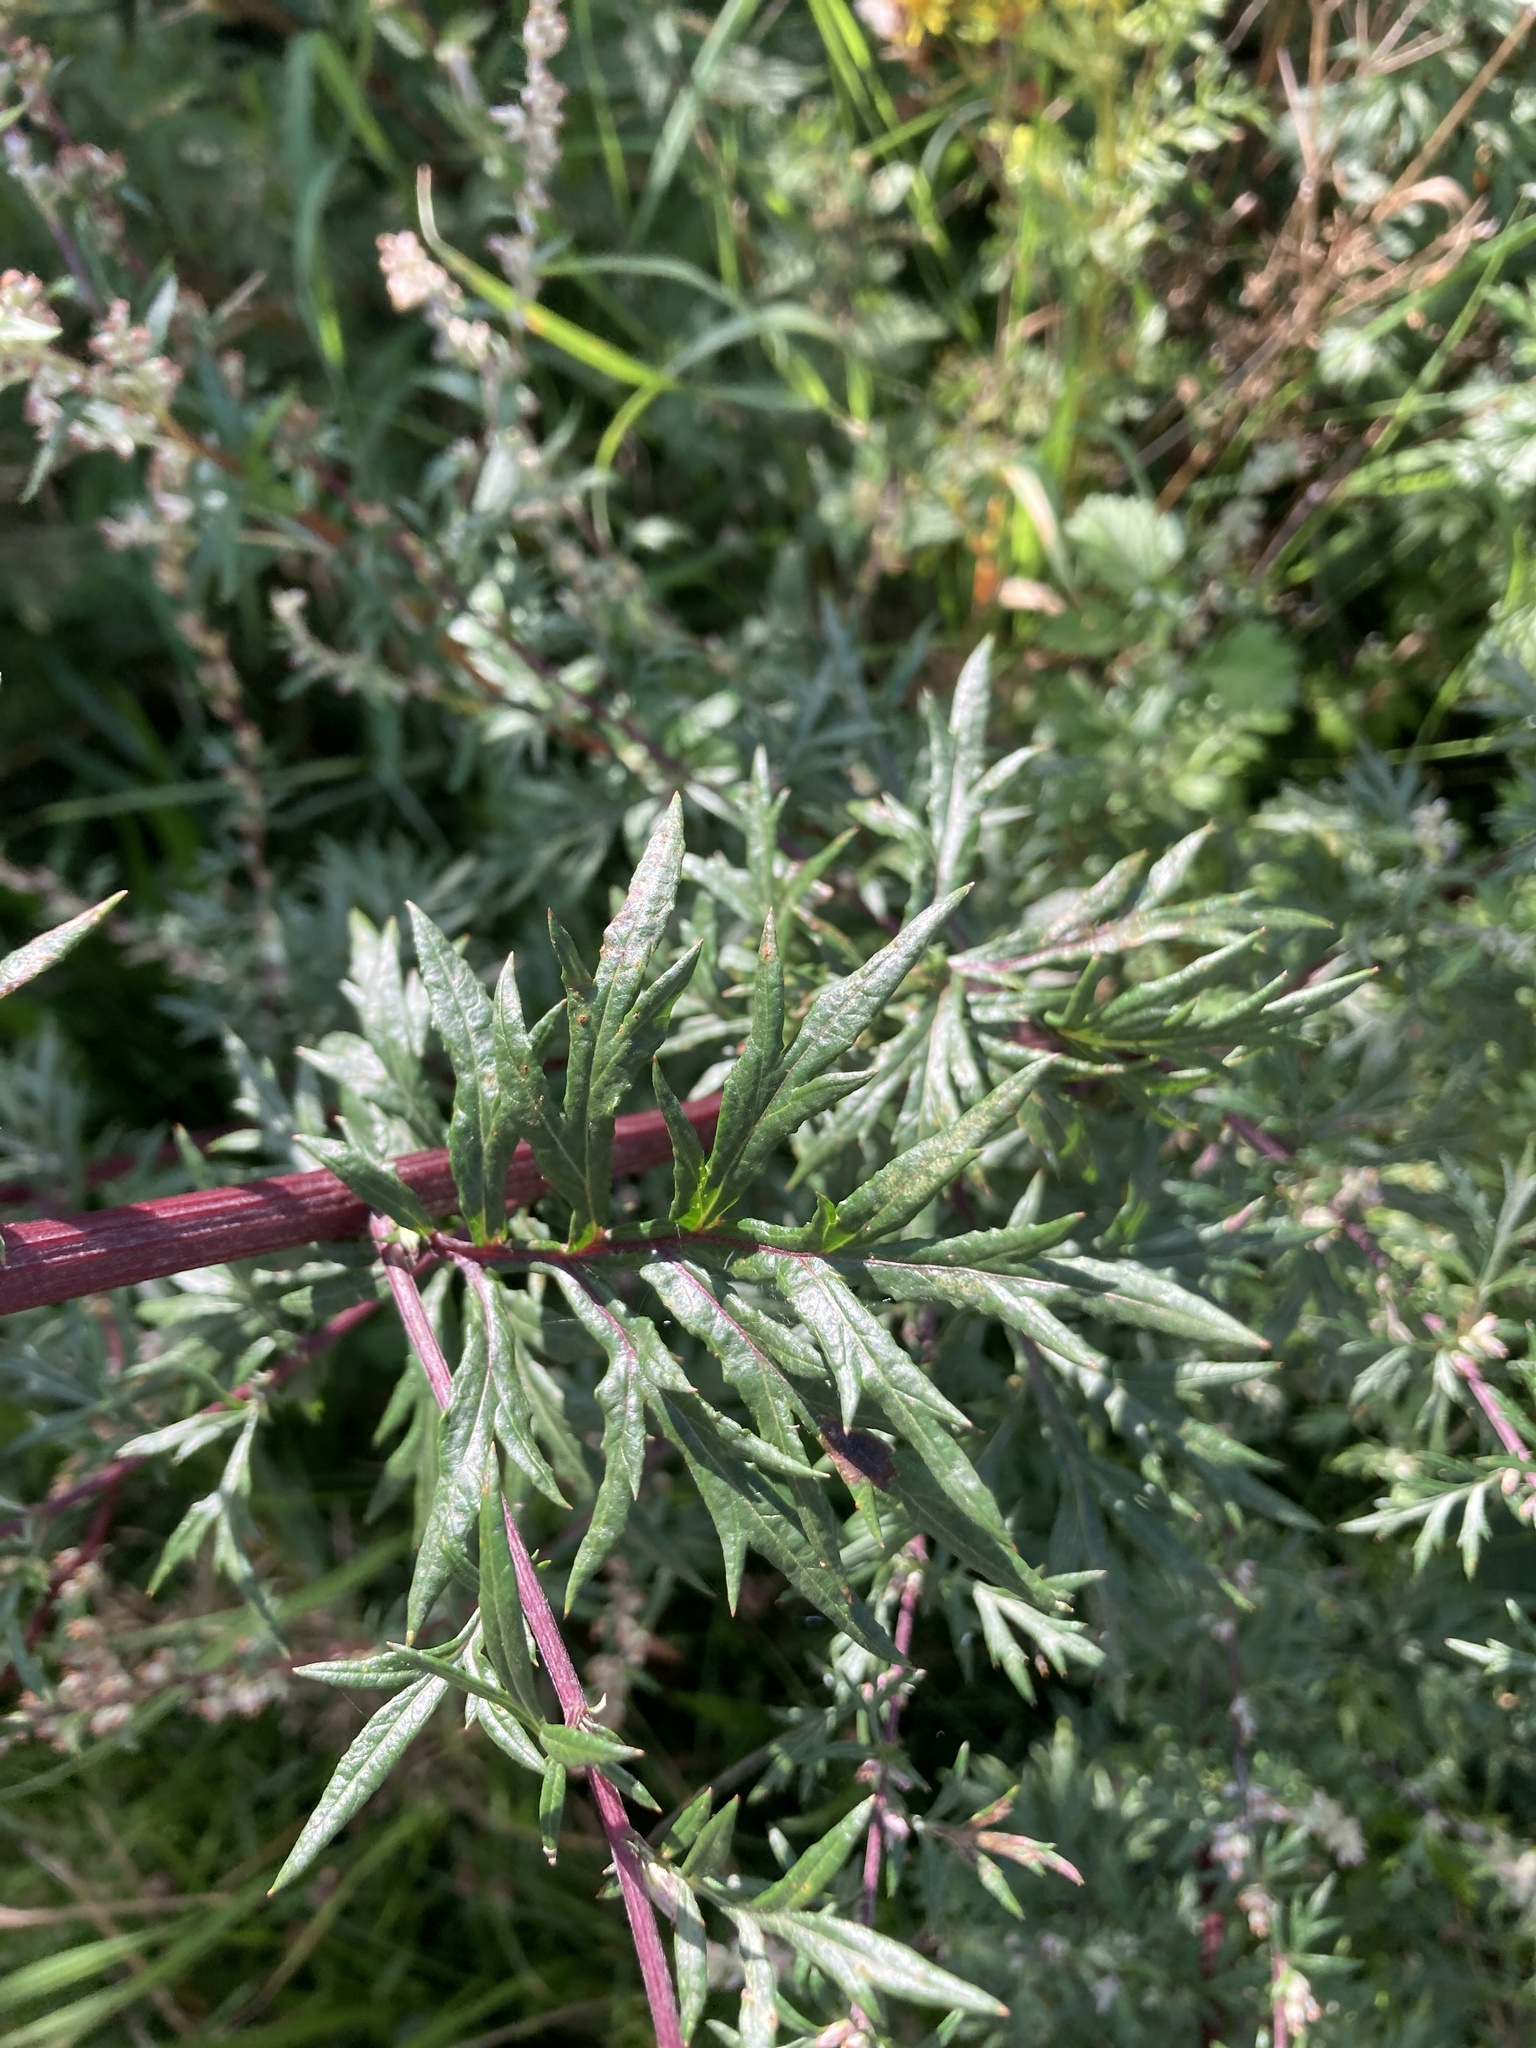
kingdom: Plantae
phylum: Tracheophyta
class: Magnoliopsida
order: Asterales
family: Asteraceae
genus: Artemisia
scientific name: Artemisia vulgaris
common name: Mugwort
